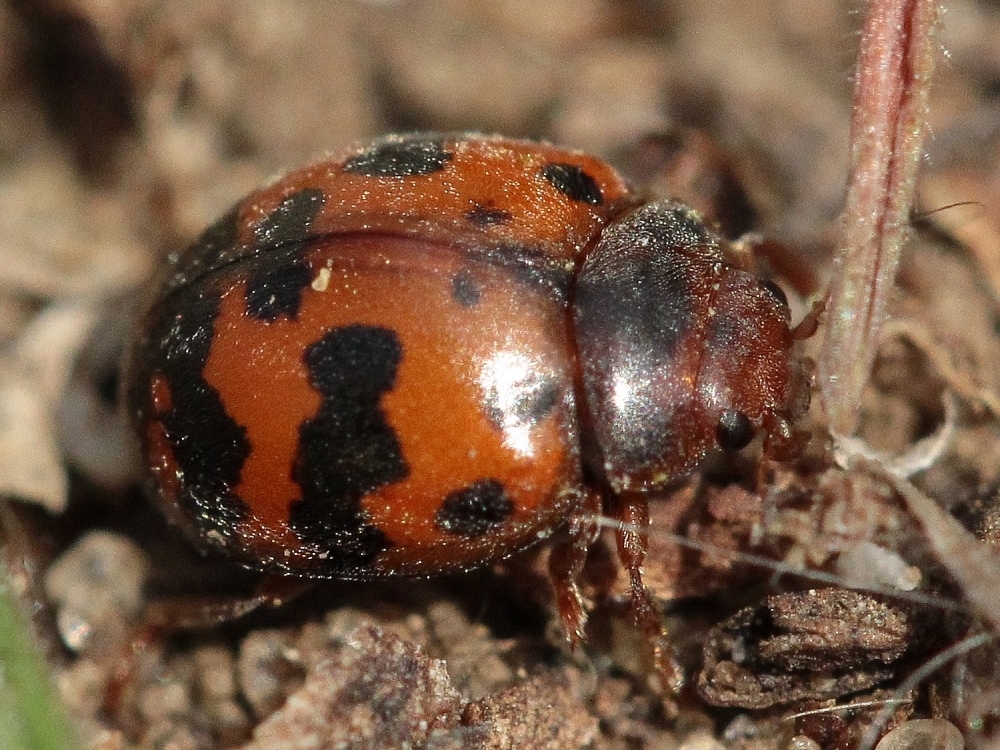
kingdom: Animalia
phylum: Arthropoda
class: Insecta
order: Coleoptera
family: Coccinellidae
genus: Subcoccinella
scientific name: Subcoccinella vigintiquatuorpunctata
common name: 24-spot ladybird
